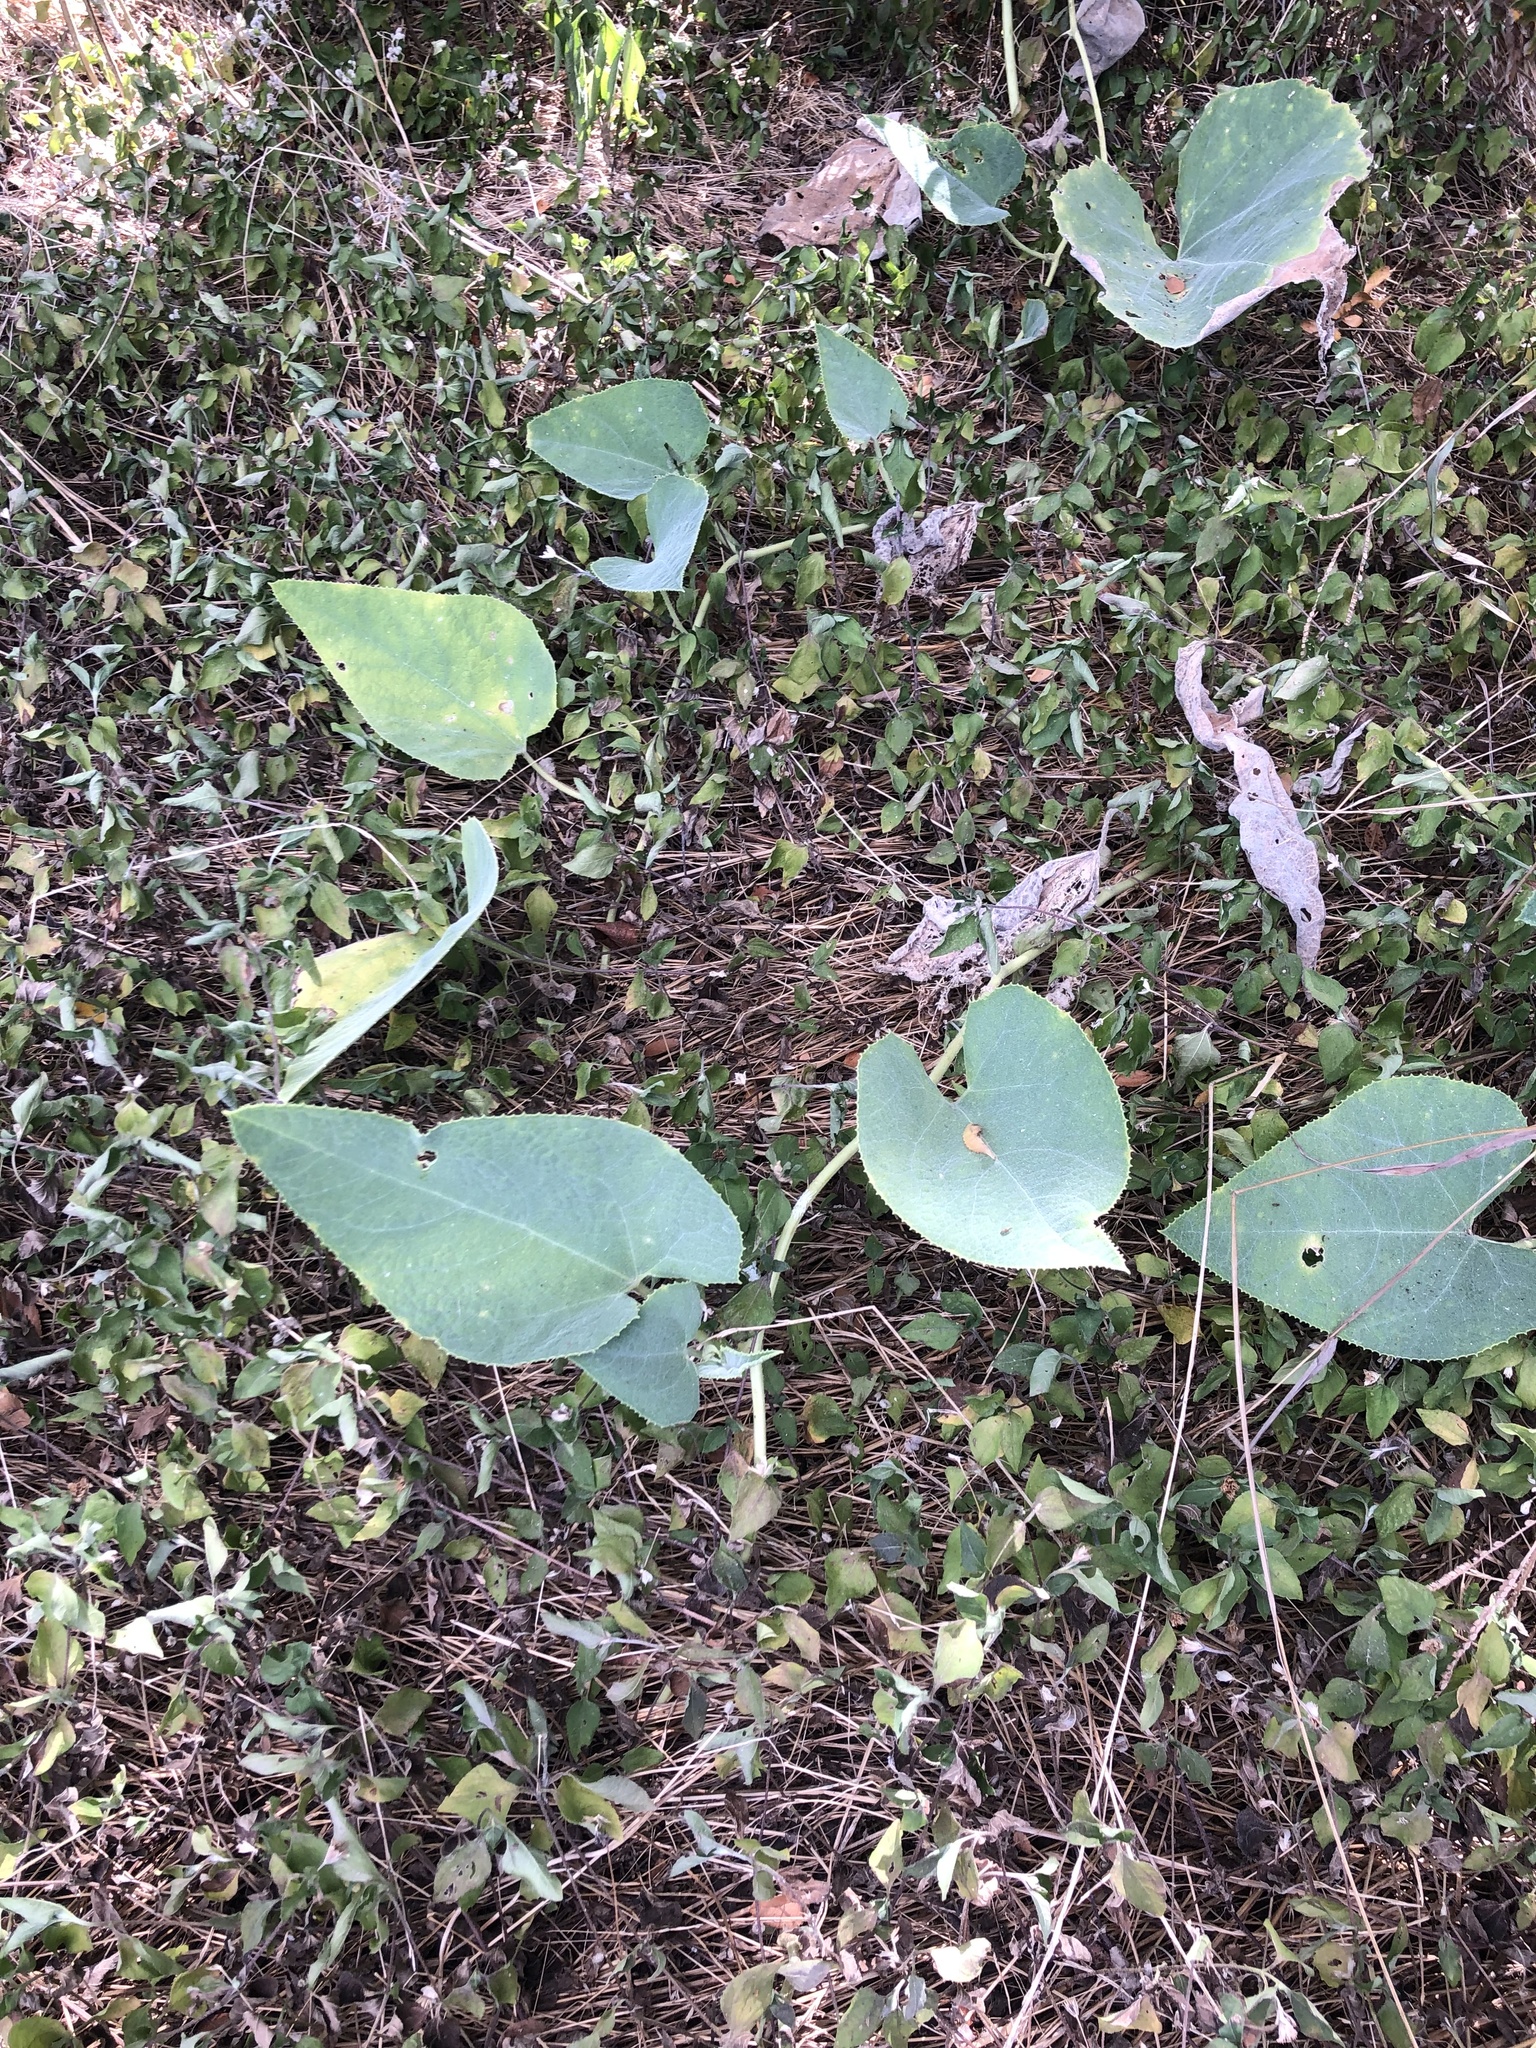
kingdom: Plantae
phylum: Tracheophyta
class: Magnoliopsida
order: Cucurbitales
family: Cucurbitaceae
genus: Cucurbita
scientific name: Cucurbita foetidissima
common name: Buffalo gourd
